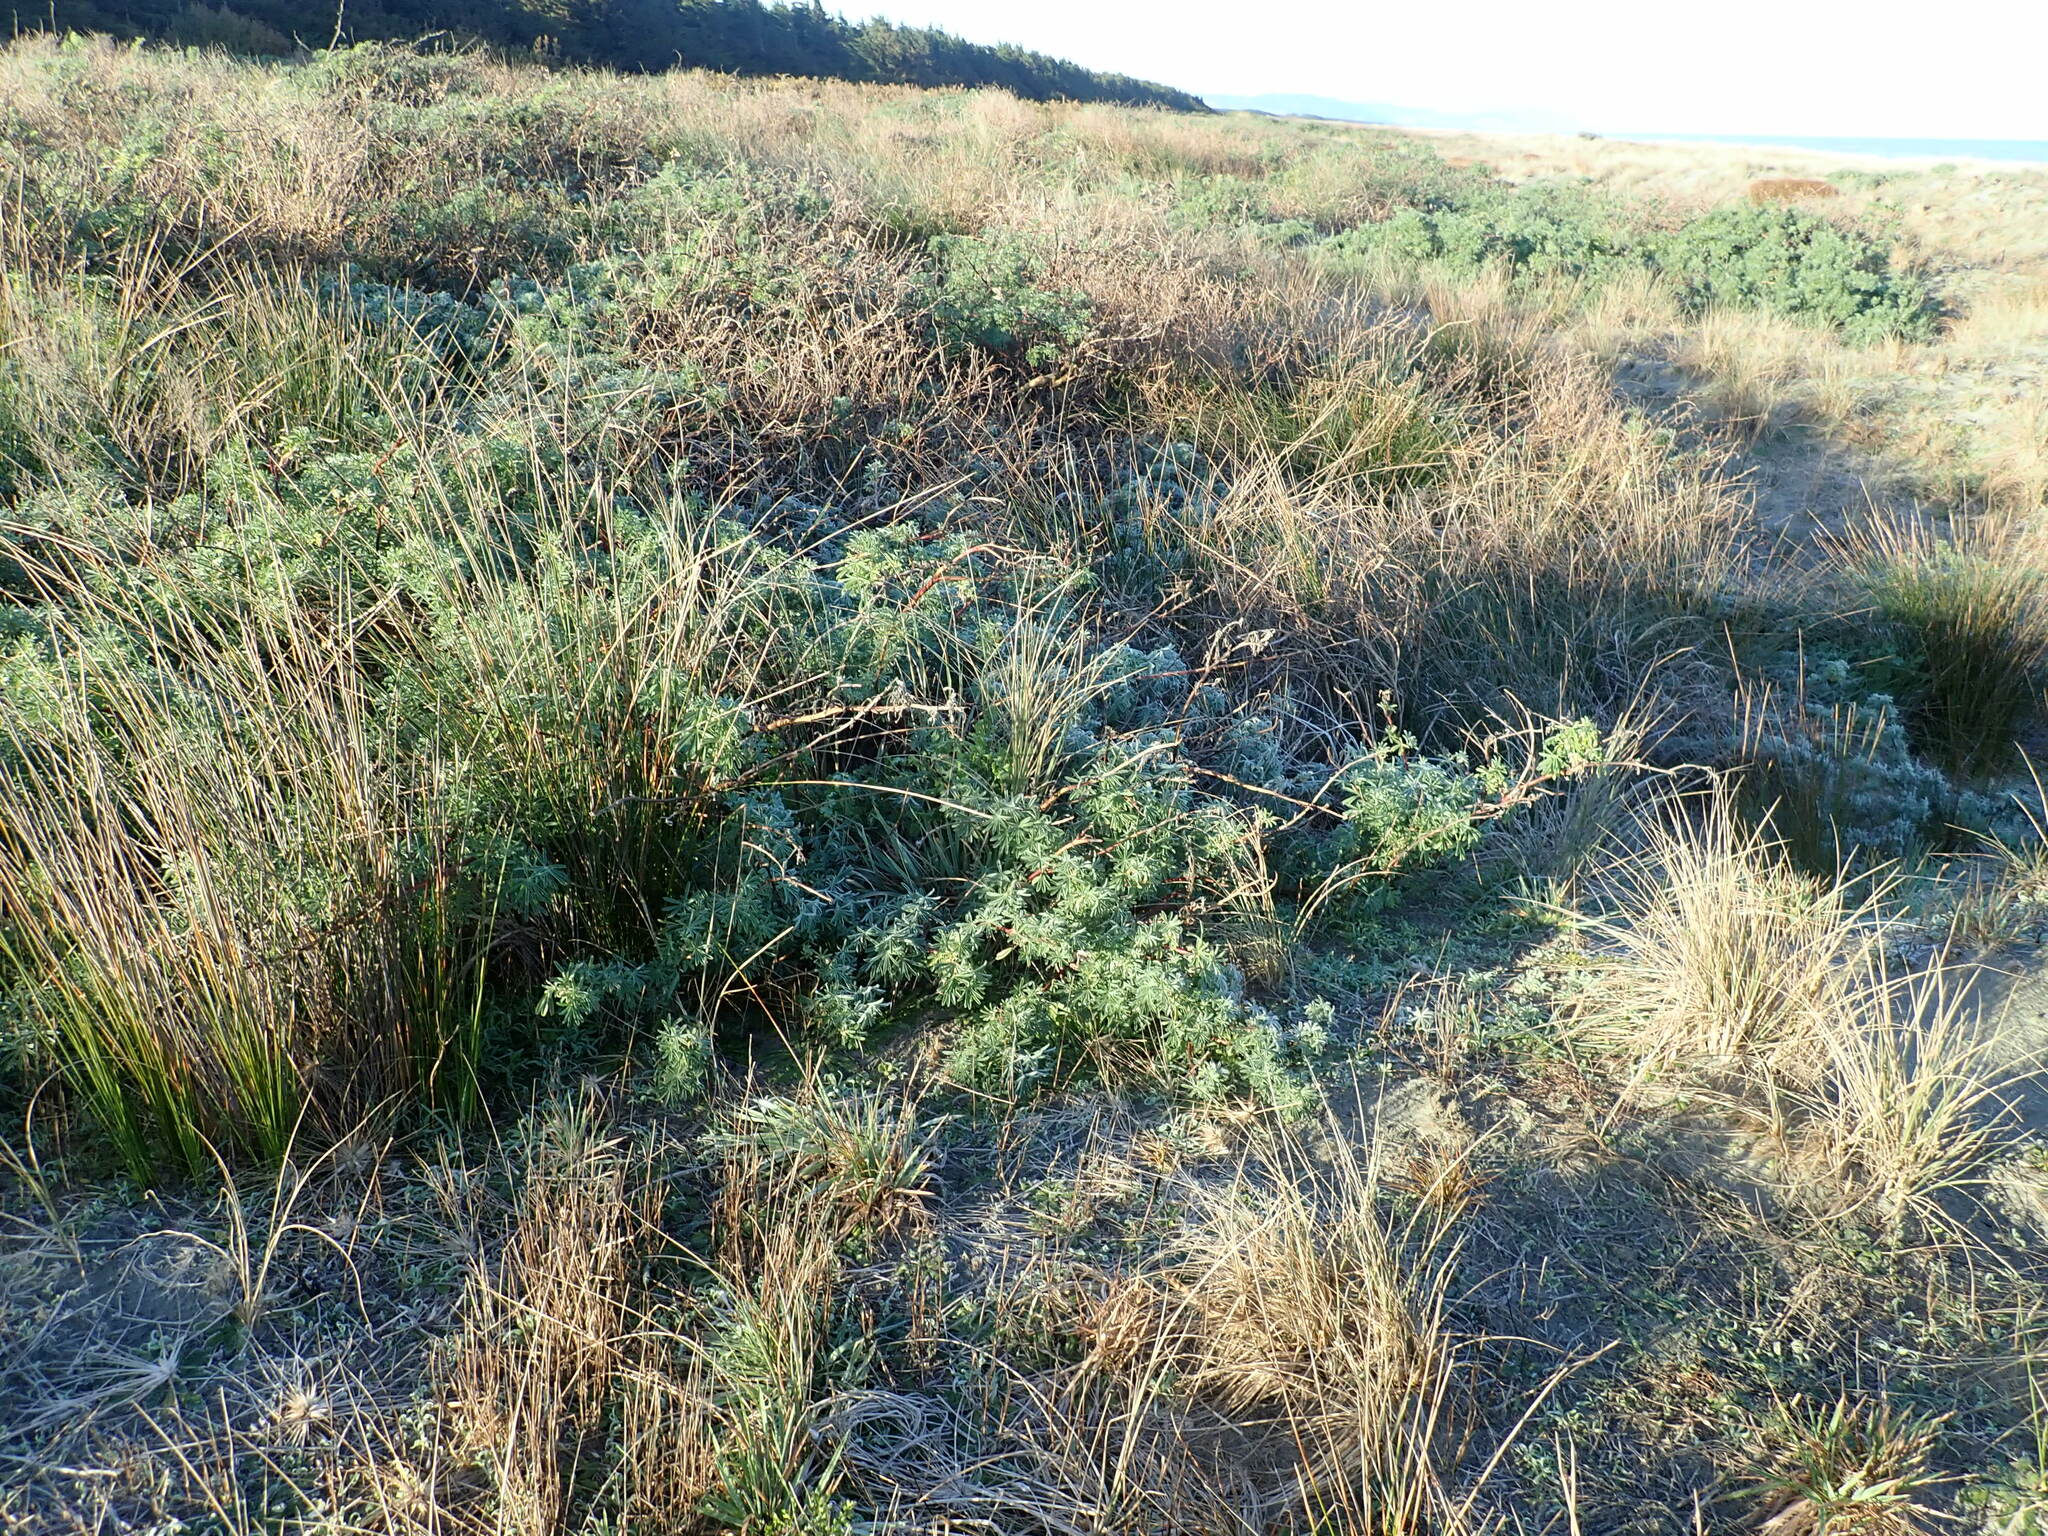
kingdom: Plantae
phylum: Tracheophyta
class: Magnoliopsida
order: Fabales
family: Fabaceae
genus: Lupinus
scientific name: Lupinus arboreus
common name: Yellow bush lupine
